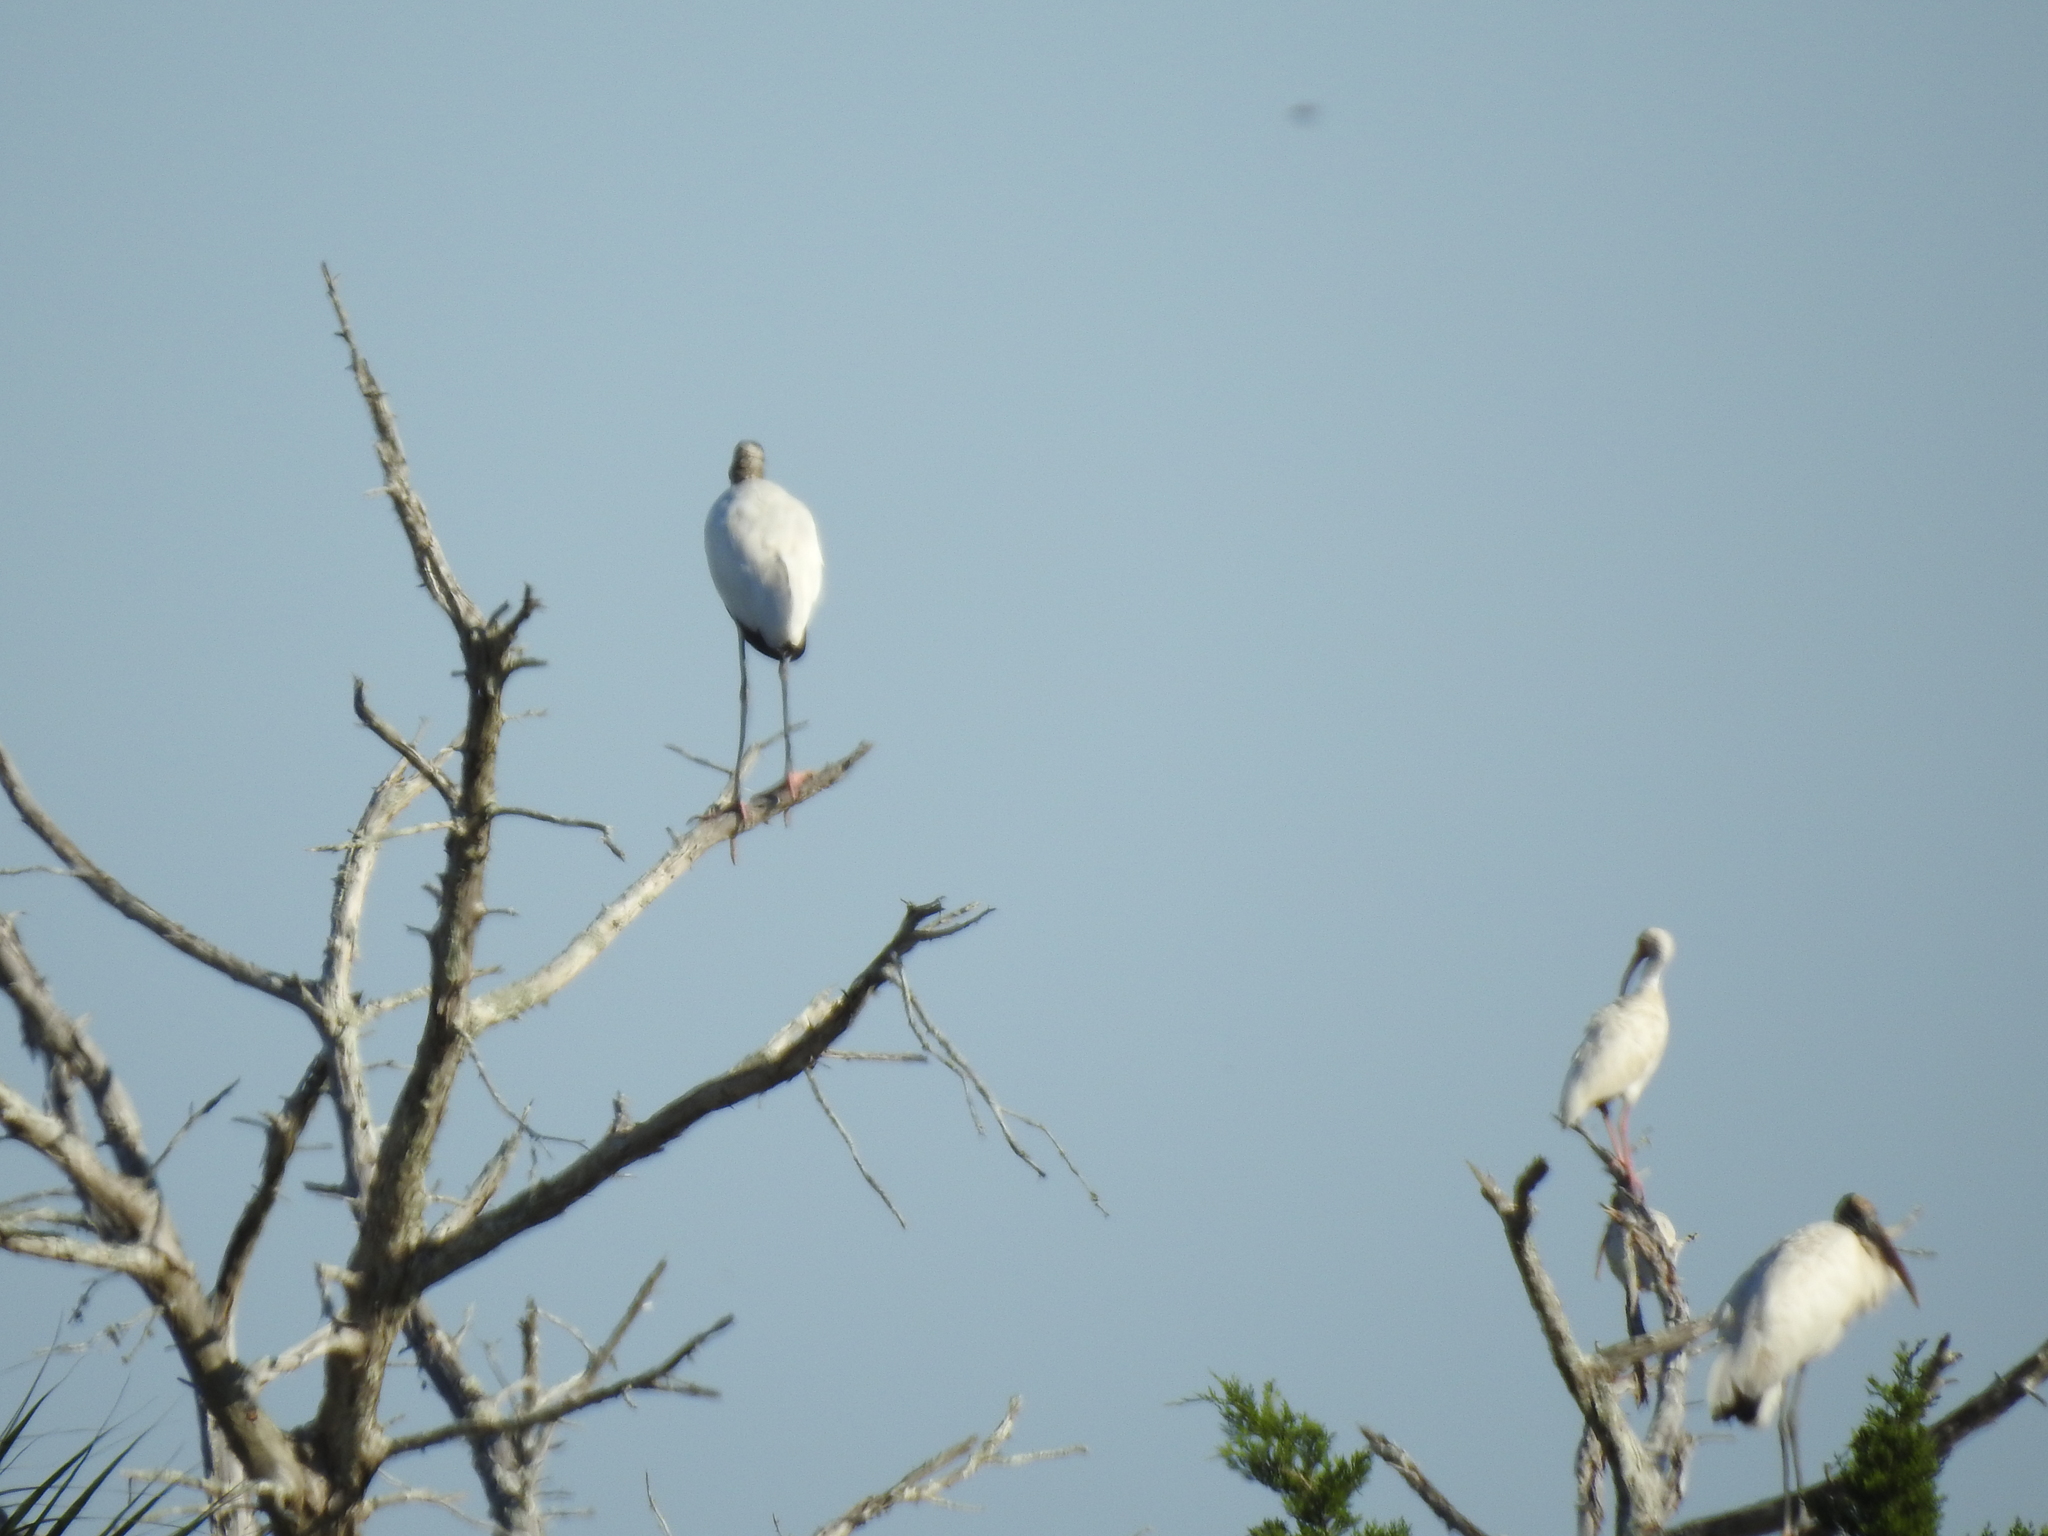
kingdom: Animalia
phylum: Chordata
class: Aves
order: Ciconiiformes
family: Ciconiidae
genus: Mycteria
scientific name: Mycteria americana
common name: Wood stork
